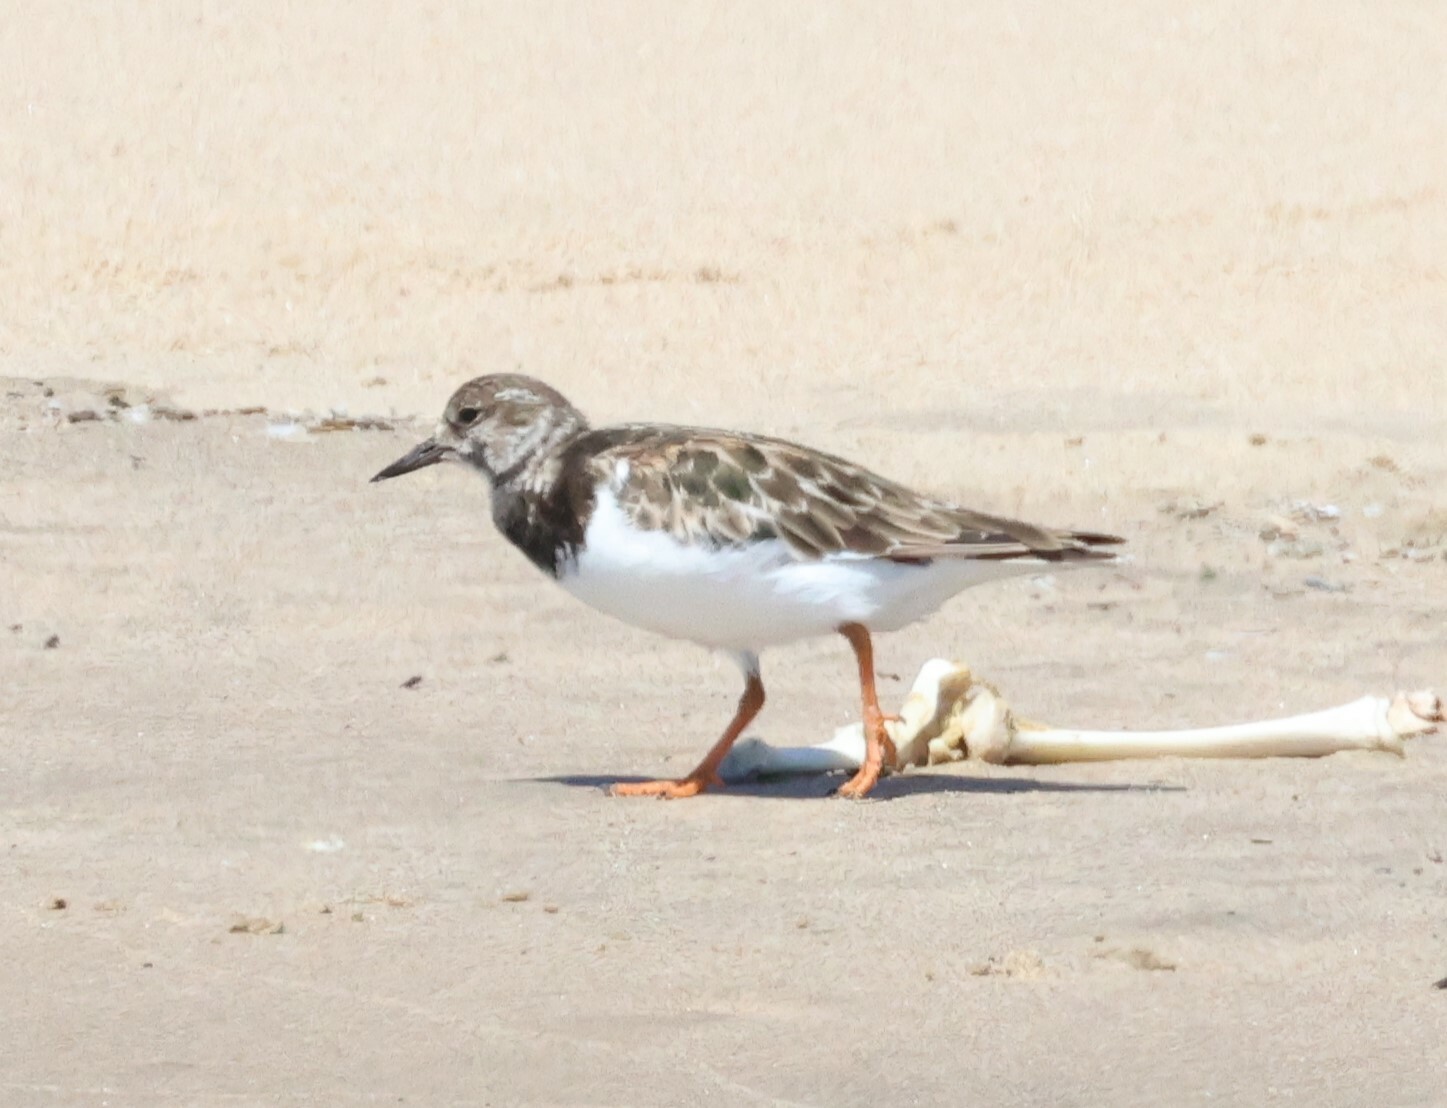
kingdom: Animalia
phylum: Chordata
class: Aves
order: Charadriiformes
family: Scolopacidae
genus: Arenaria
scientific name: Arenaria interpres
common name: Ruddy turnstone
